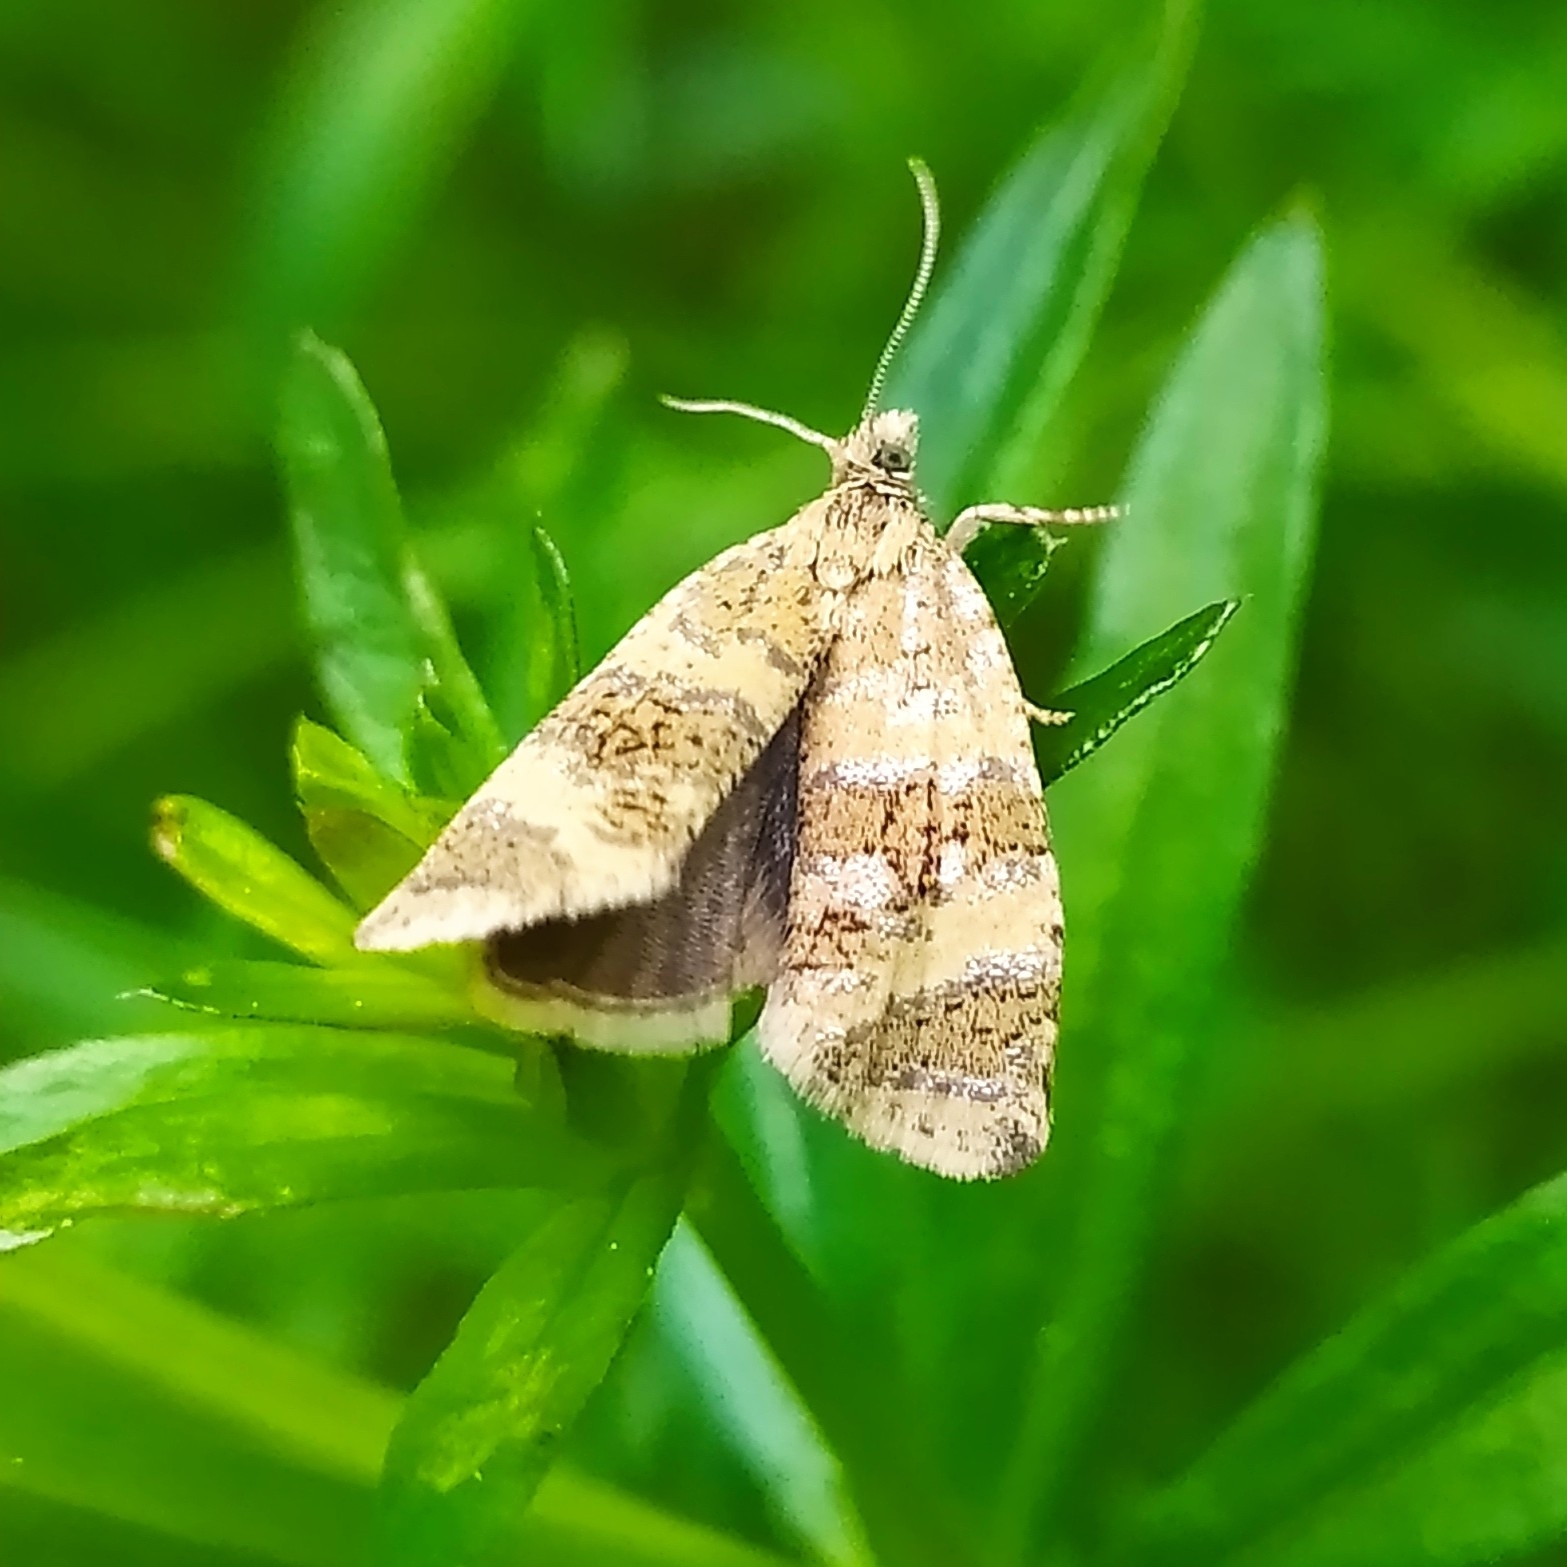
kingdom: Animalia
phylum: Arthropoda
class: Insecta
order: Lepidoptera
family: Tortricidae
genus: Olethreutes
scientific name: Olethreutes metallicana
